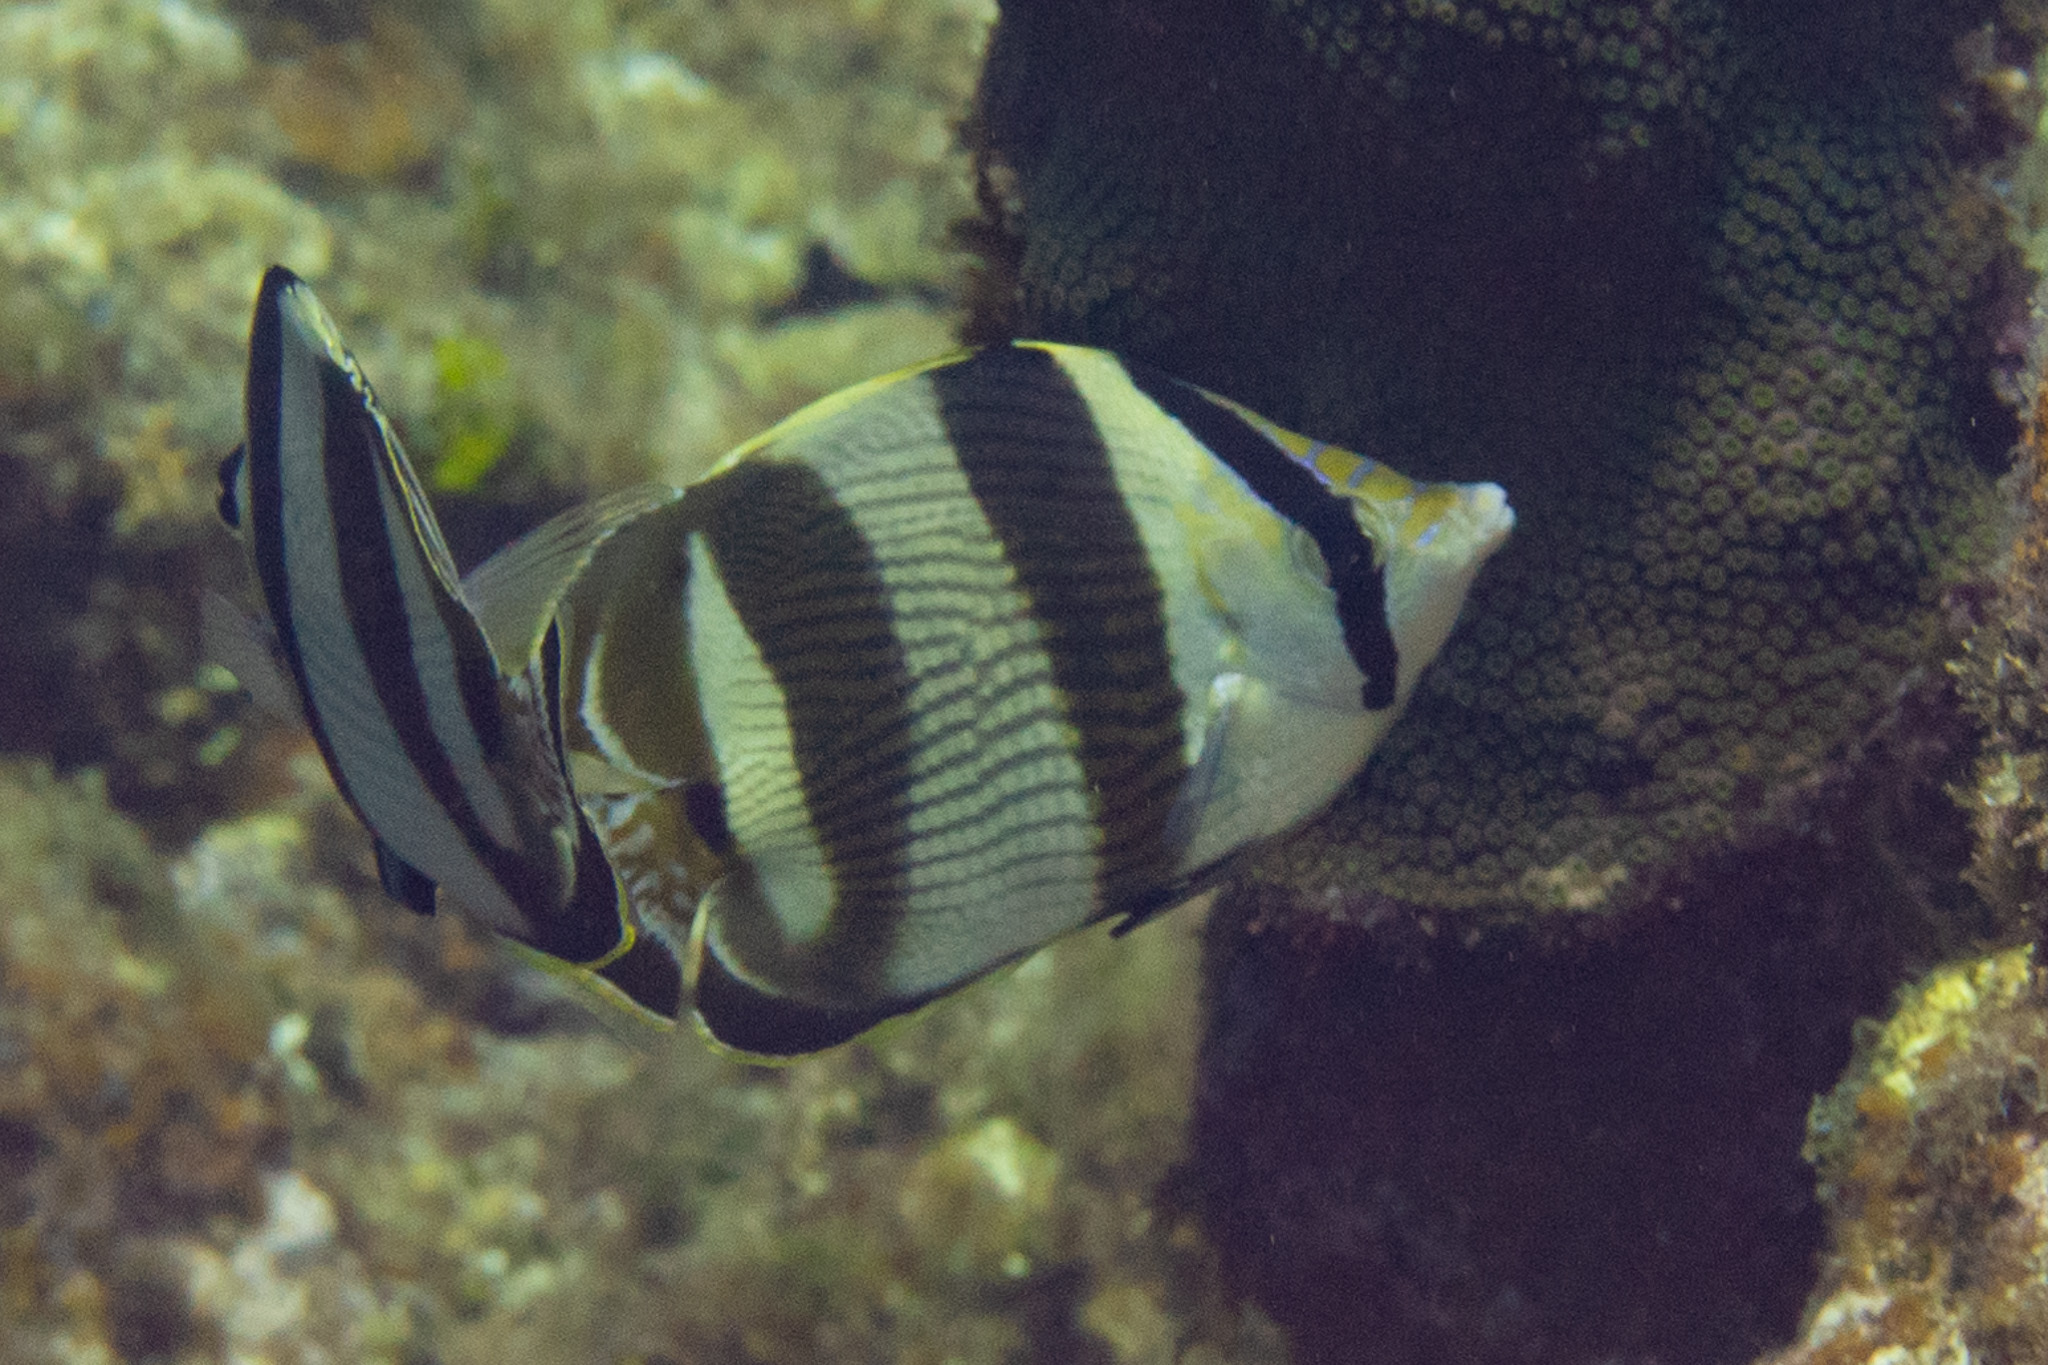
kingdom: Animalia
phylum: Chordata
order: Perciformes
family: Chaetodontidae
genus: Chaetodon
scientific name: Chaetodon striatus
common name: Banded butterflyfish
